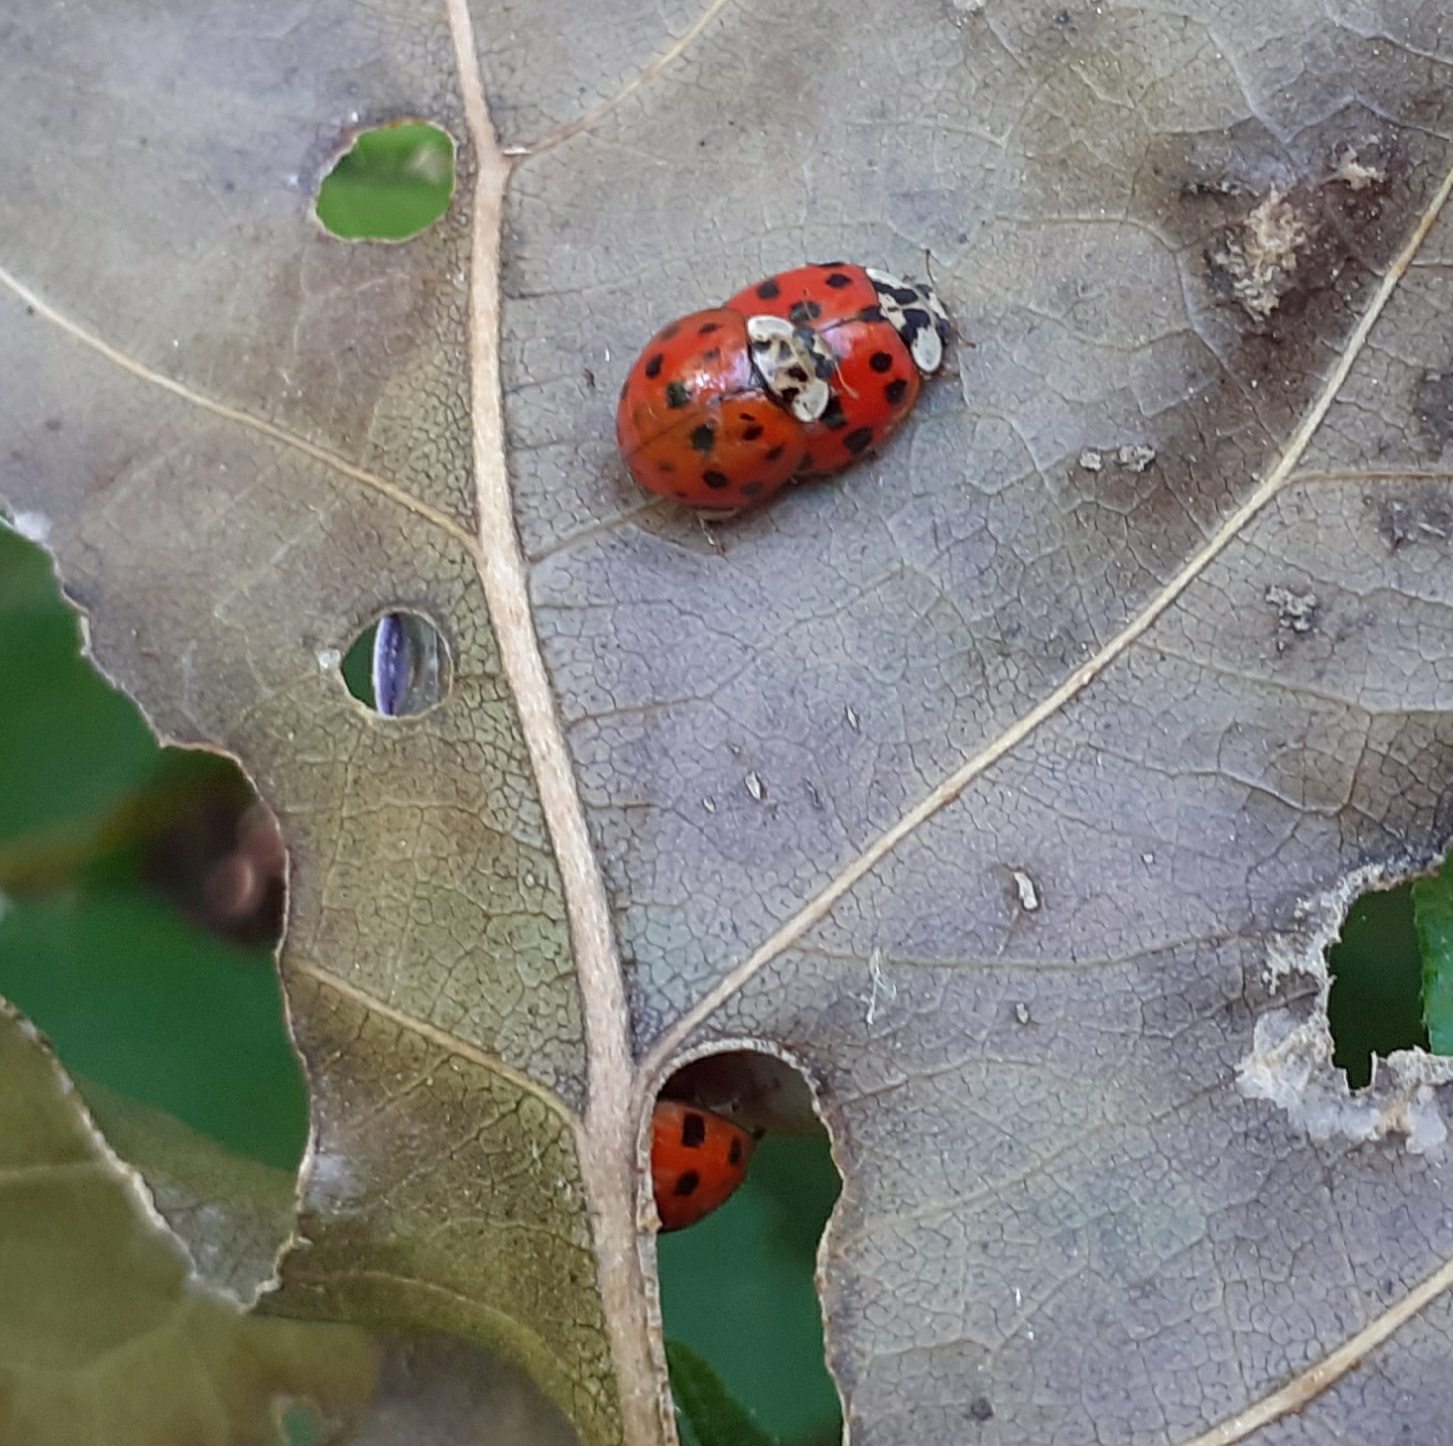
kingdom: Animalia
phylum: Arthropoda
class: Insecta
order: Coleoptera
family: Coccinellidae
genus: Harmonia
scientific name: Harmonia axyridis
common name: Harlequin ladybird
